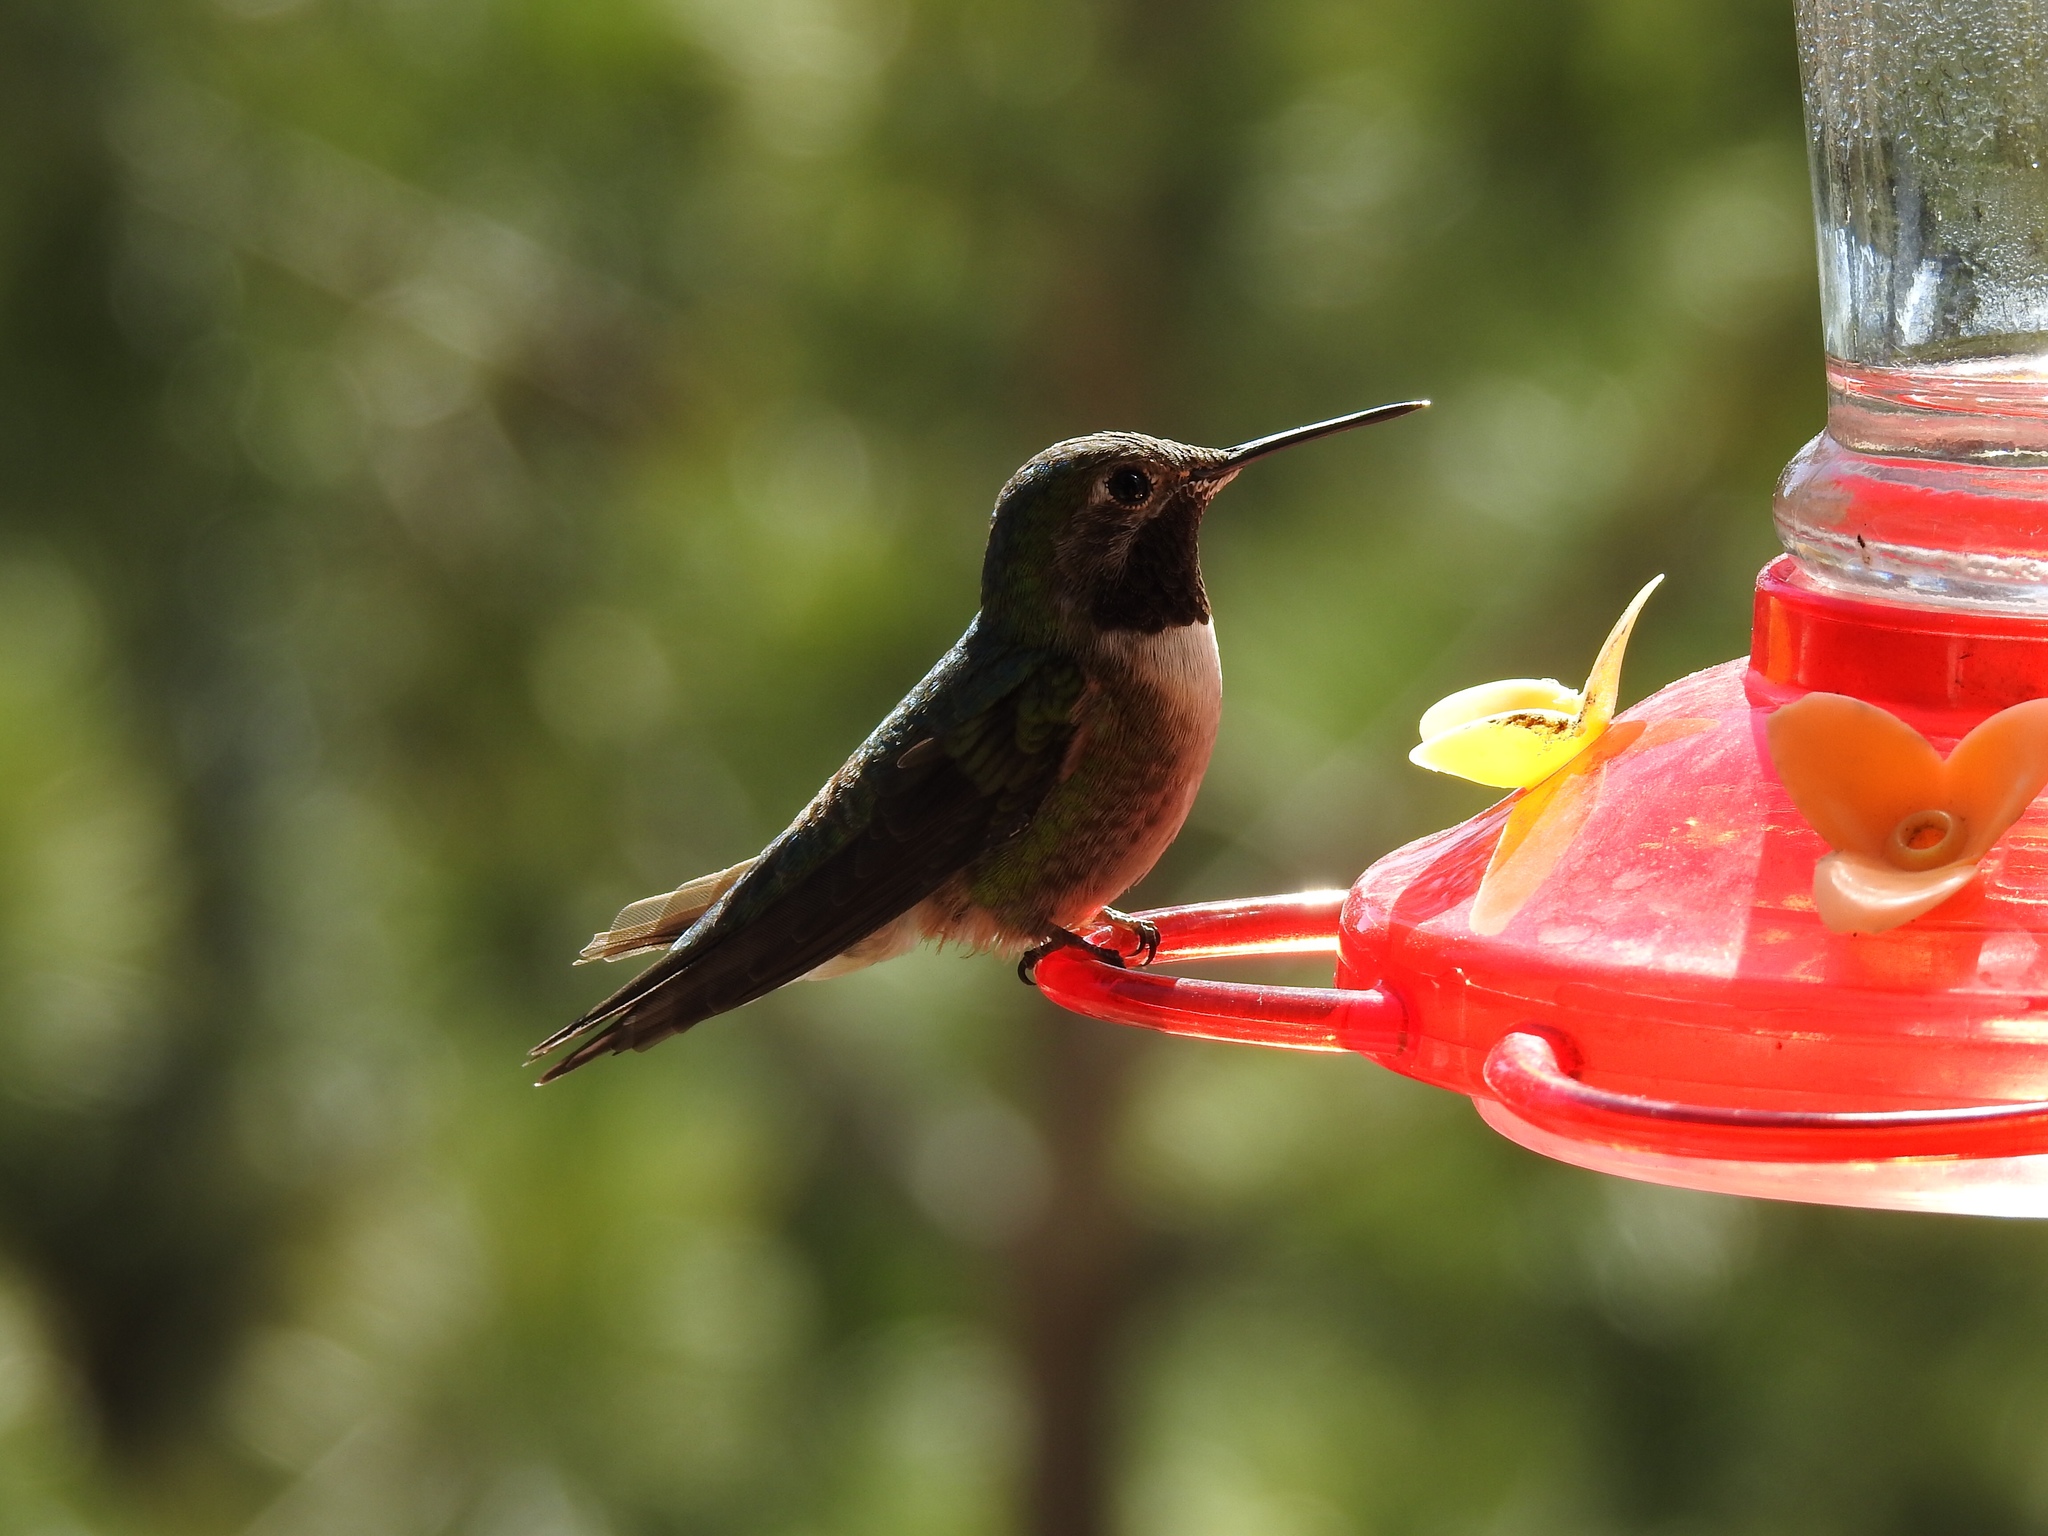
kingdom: Animalia
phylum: Chordata
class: Aves
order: Apodiformes
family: Trochilidae
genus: Selasphorus
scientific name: Selasphorus platycercus
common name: Broad-tailed hummingbird
